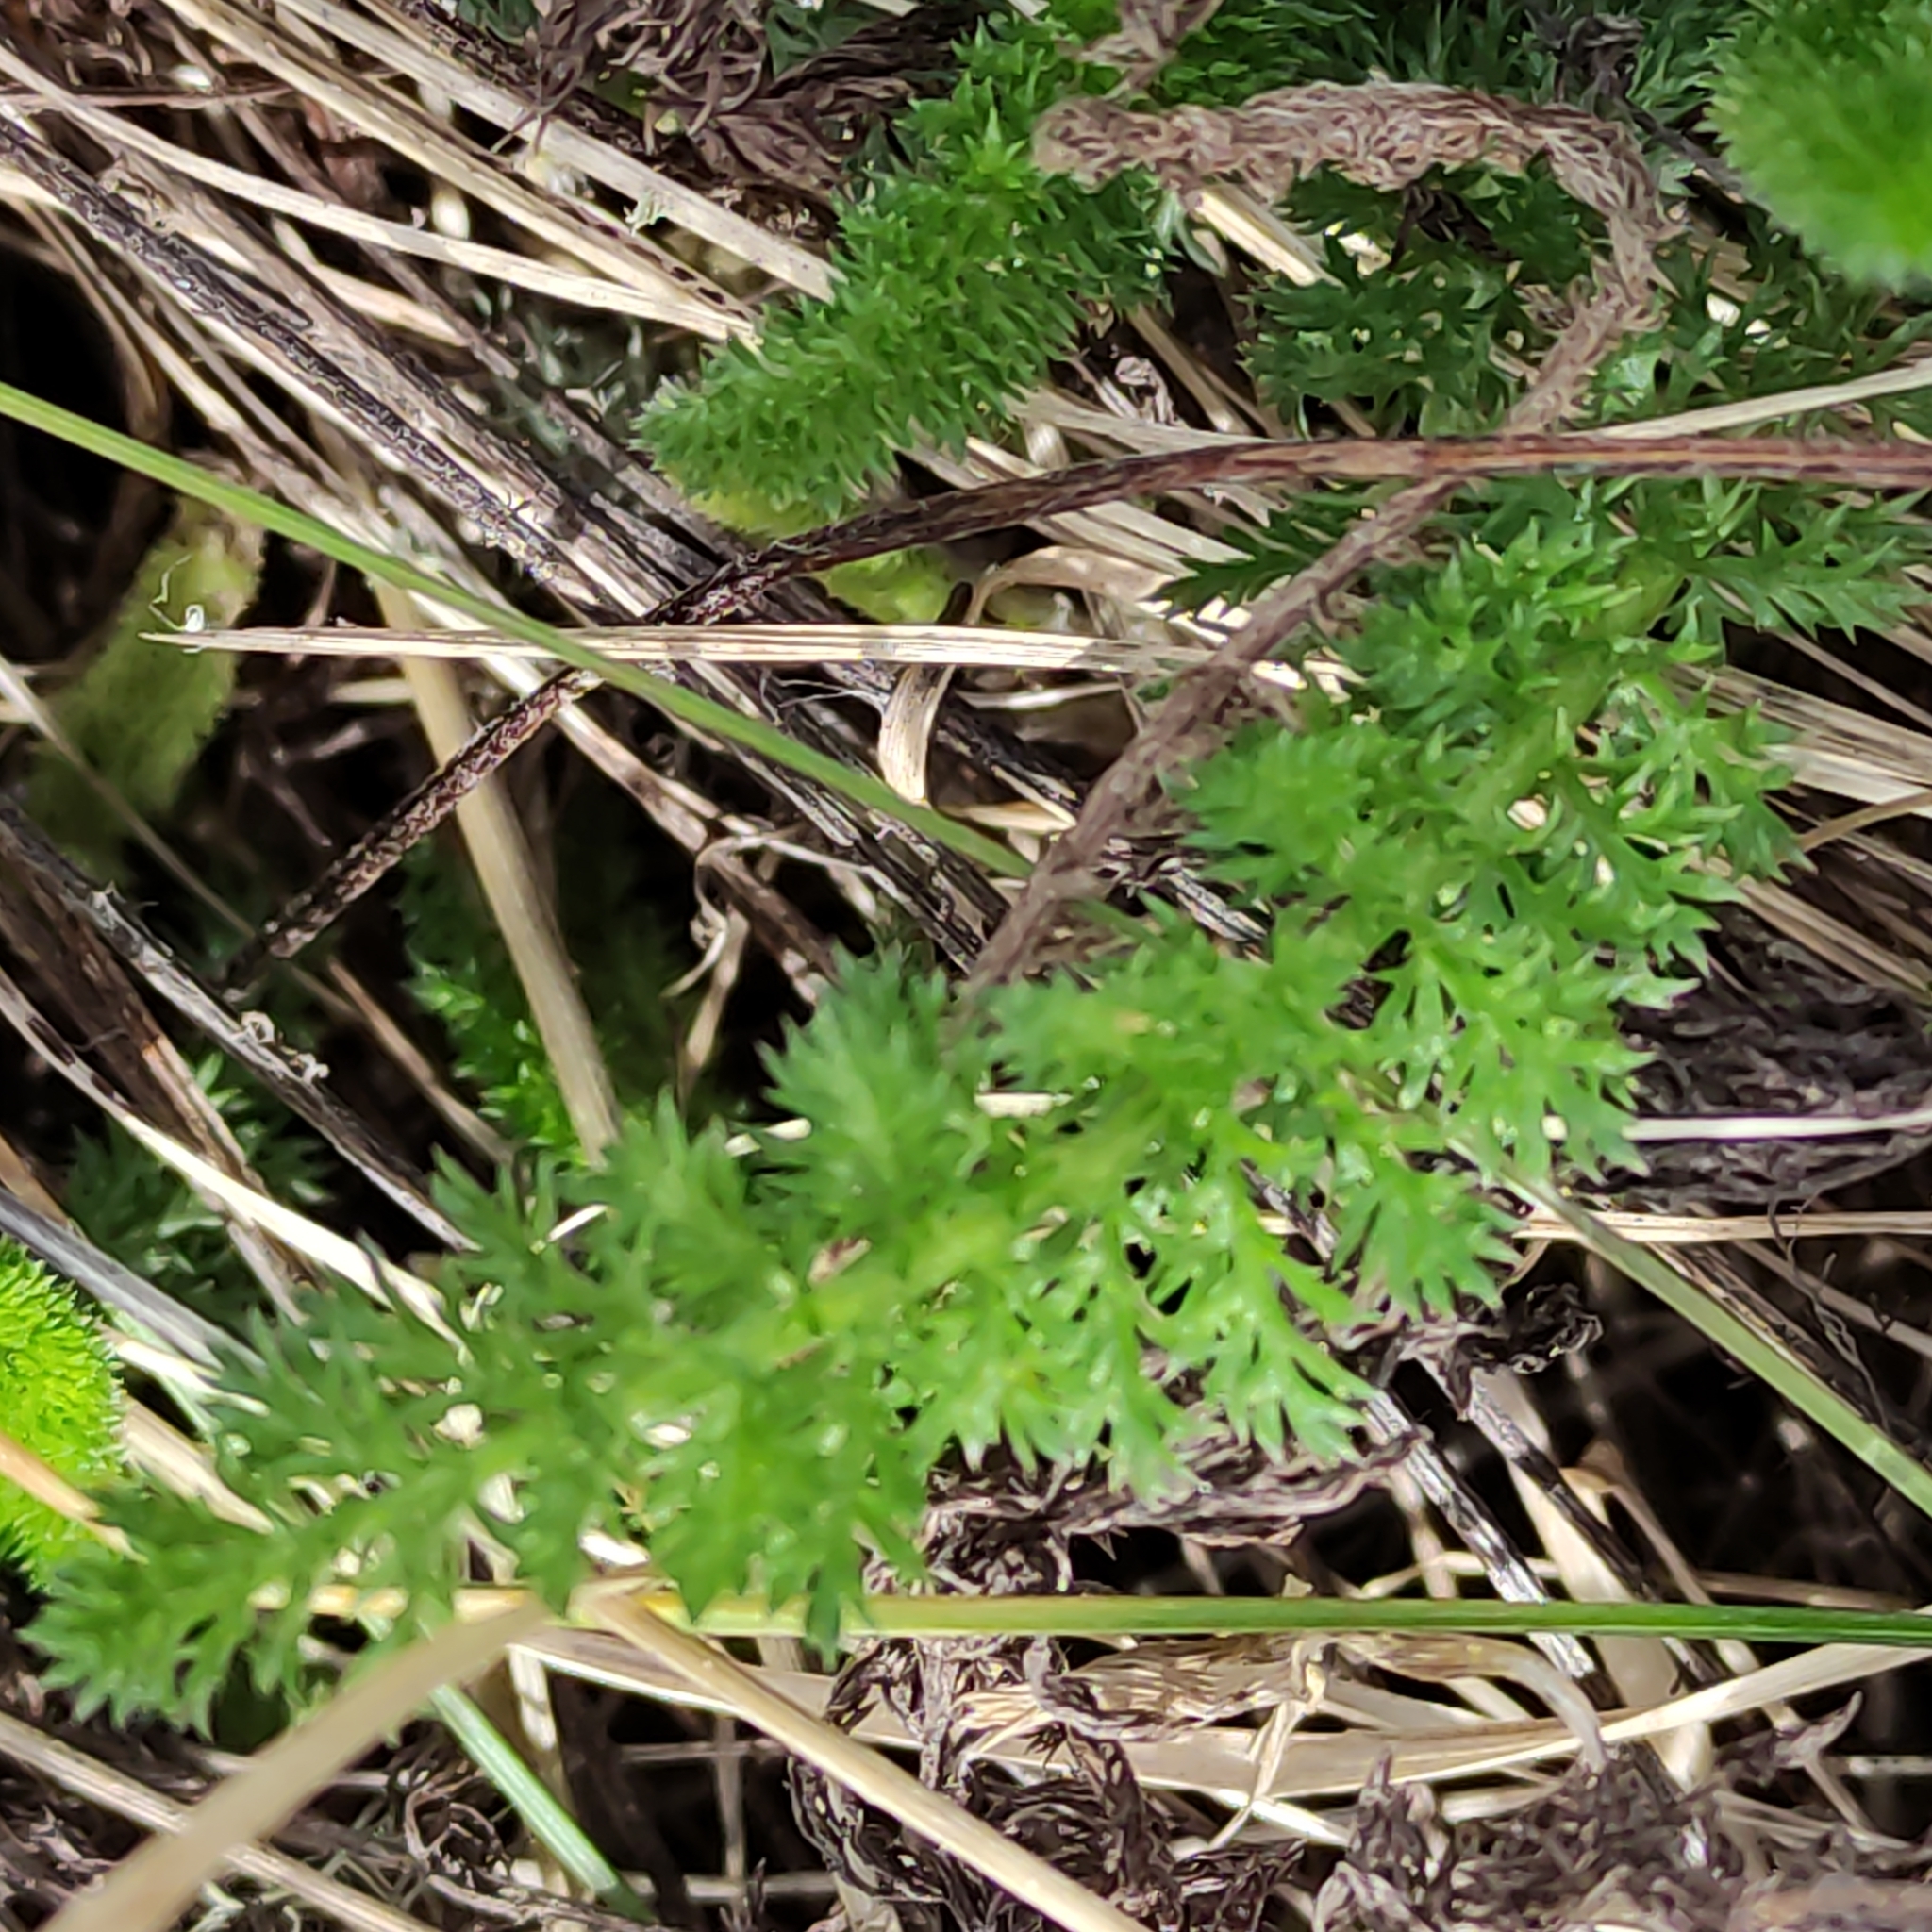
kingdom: Plantae
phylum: Tracheophyta
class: Magnoliopsida
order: Asterales
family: Asteraceae
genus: Achillea
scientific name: Achillea millefolium
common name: Yarrow
